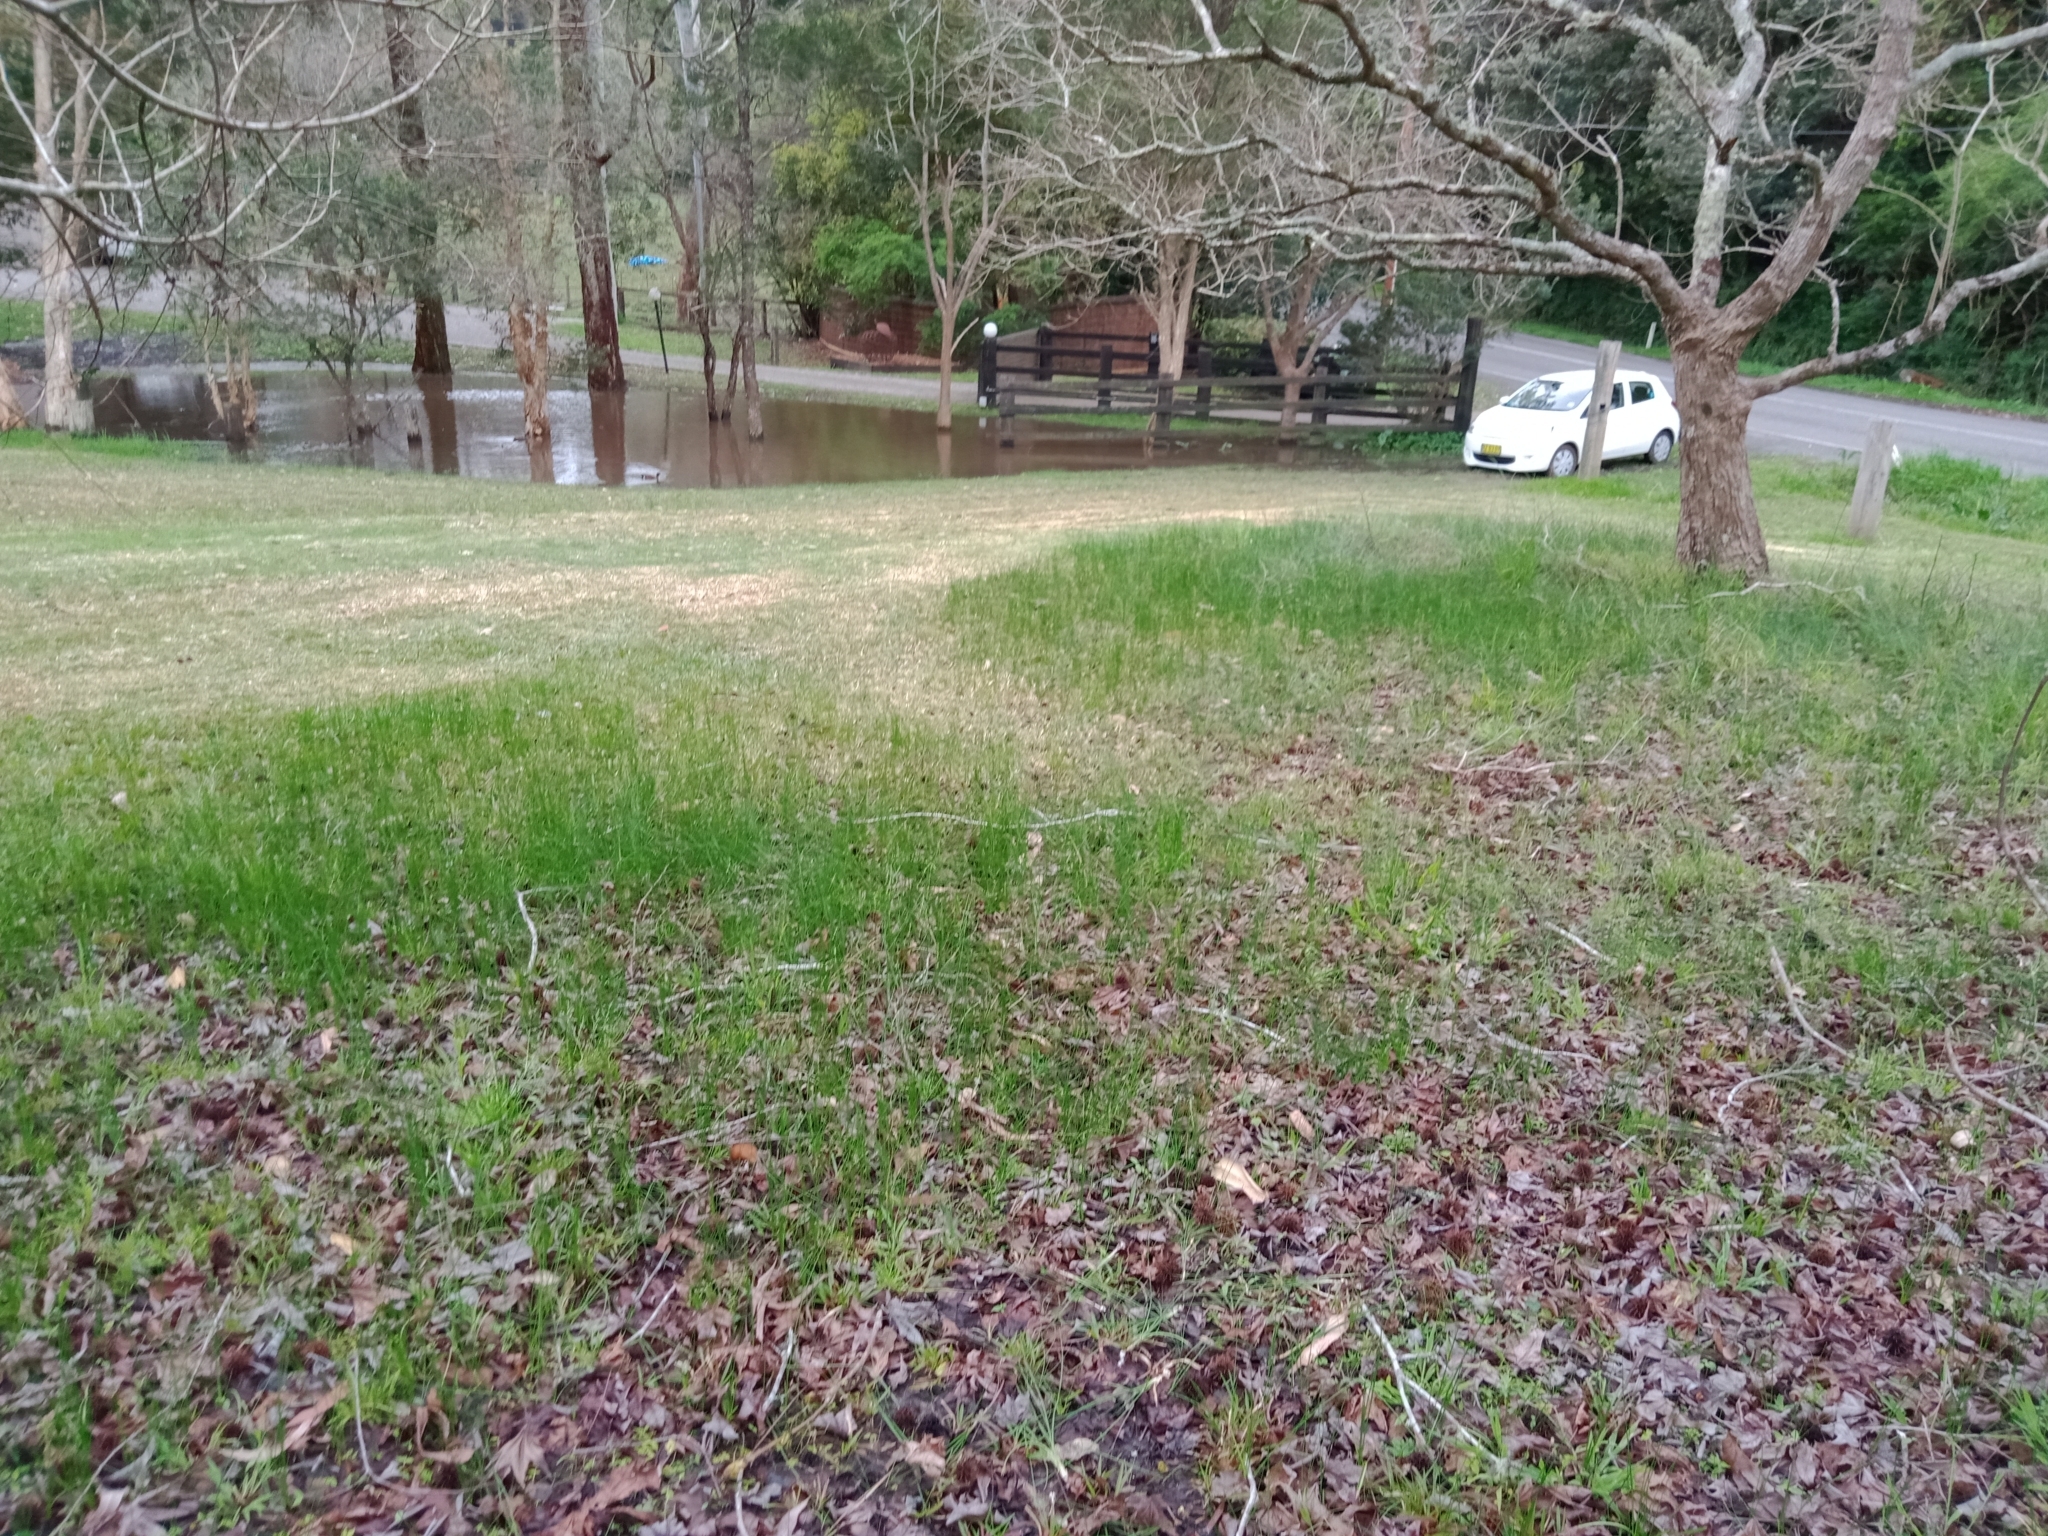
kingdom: Animalia
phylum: Chordata
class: Aves
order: Anseriformes
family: Anatidae
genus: Anas
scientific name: Anas castanea
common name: Chestnut teal
